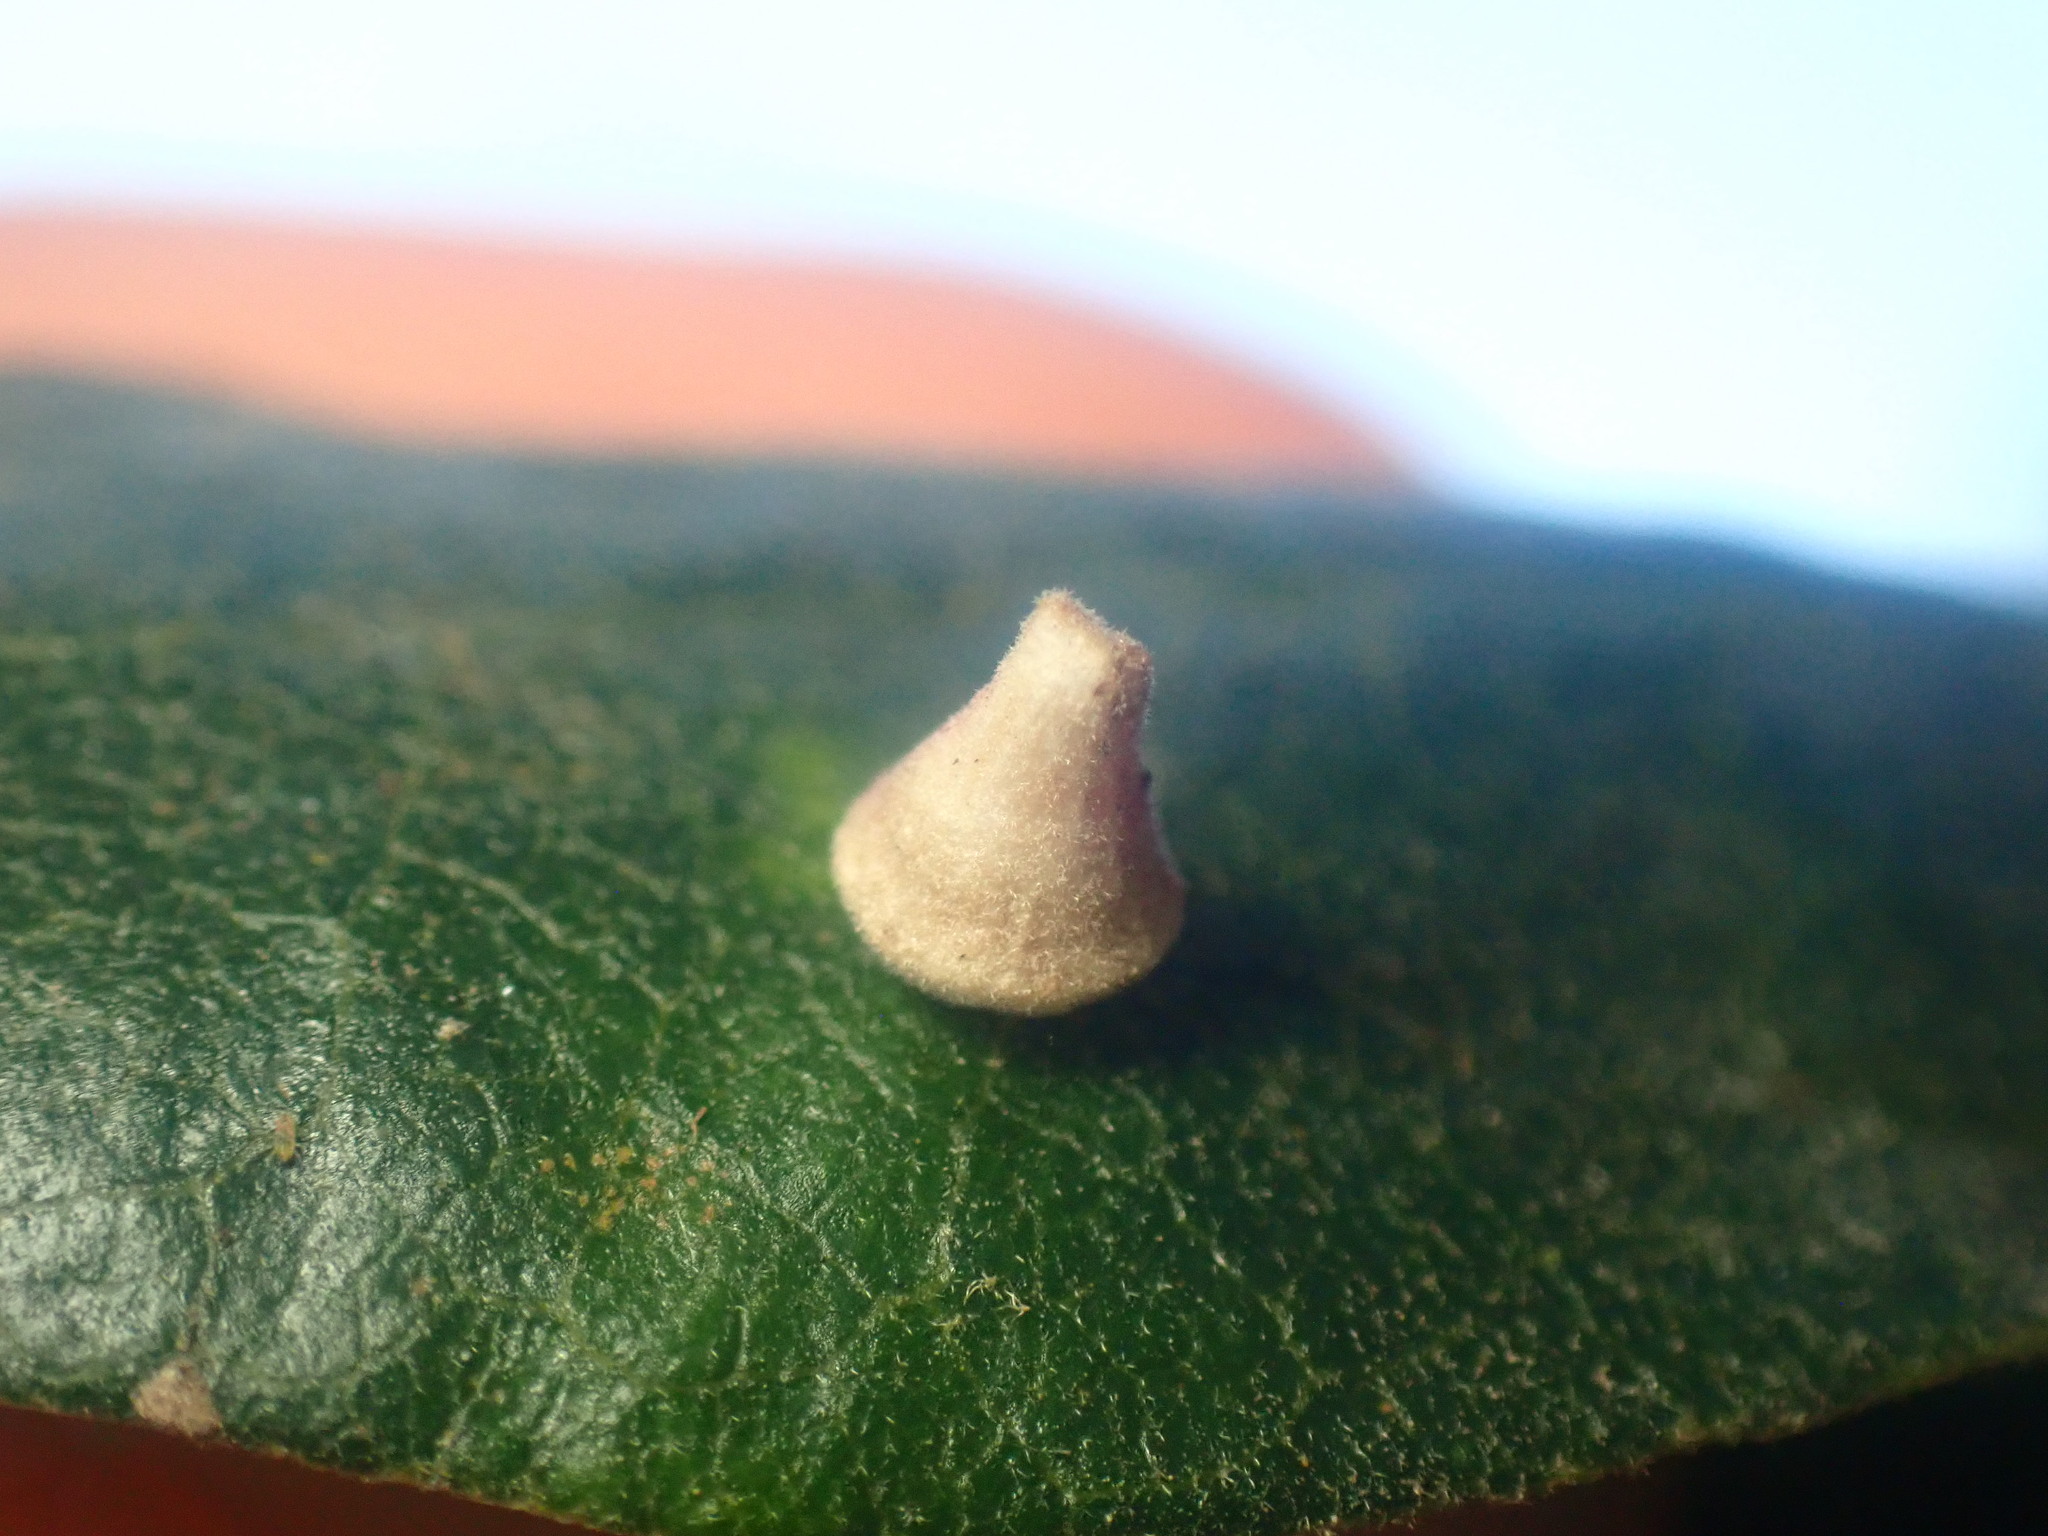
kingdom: Animalia
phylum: Arthropoda
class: Insecta
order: Hymenoptera
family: Cynipidae
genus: Andricus
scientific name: Andricus
